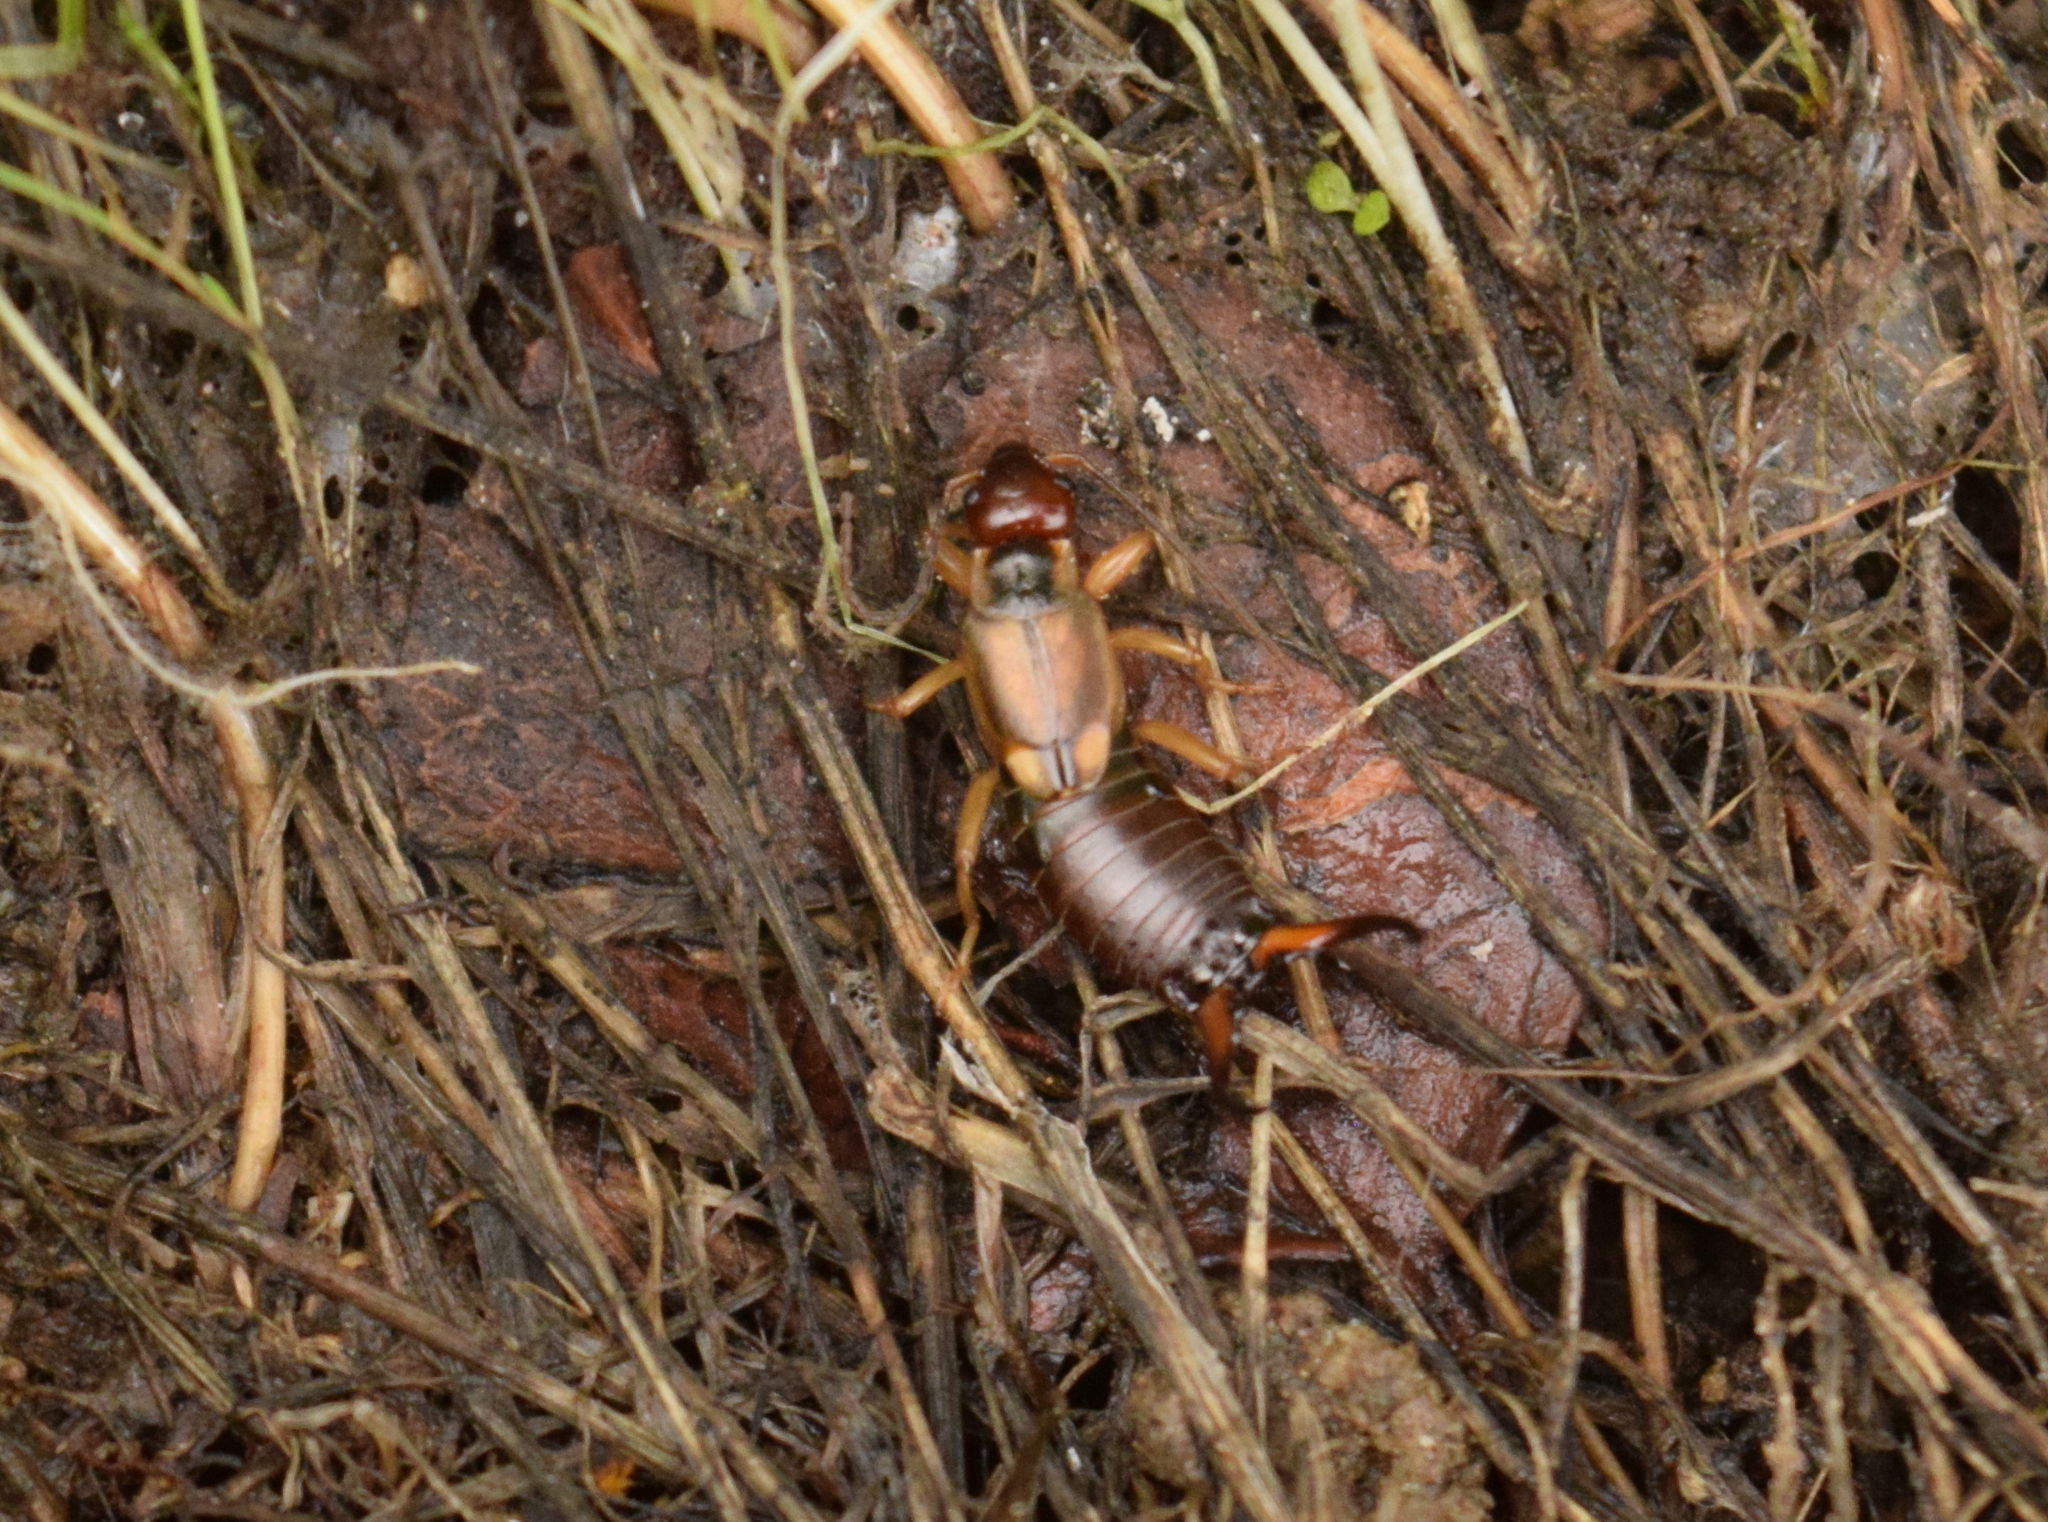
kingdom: Animalia
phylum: Arthropoda
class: Insecta
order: Dermaptera
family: Forficulidae
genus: Forficula
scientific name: Forficula
